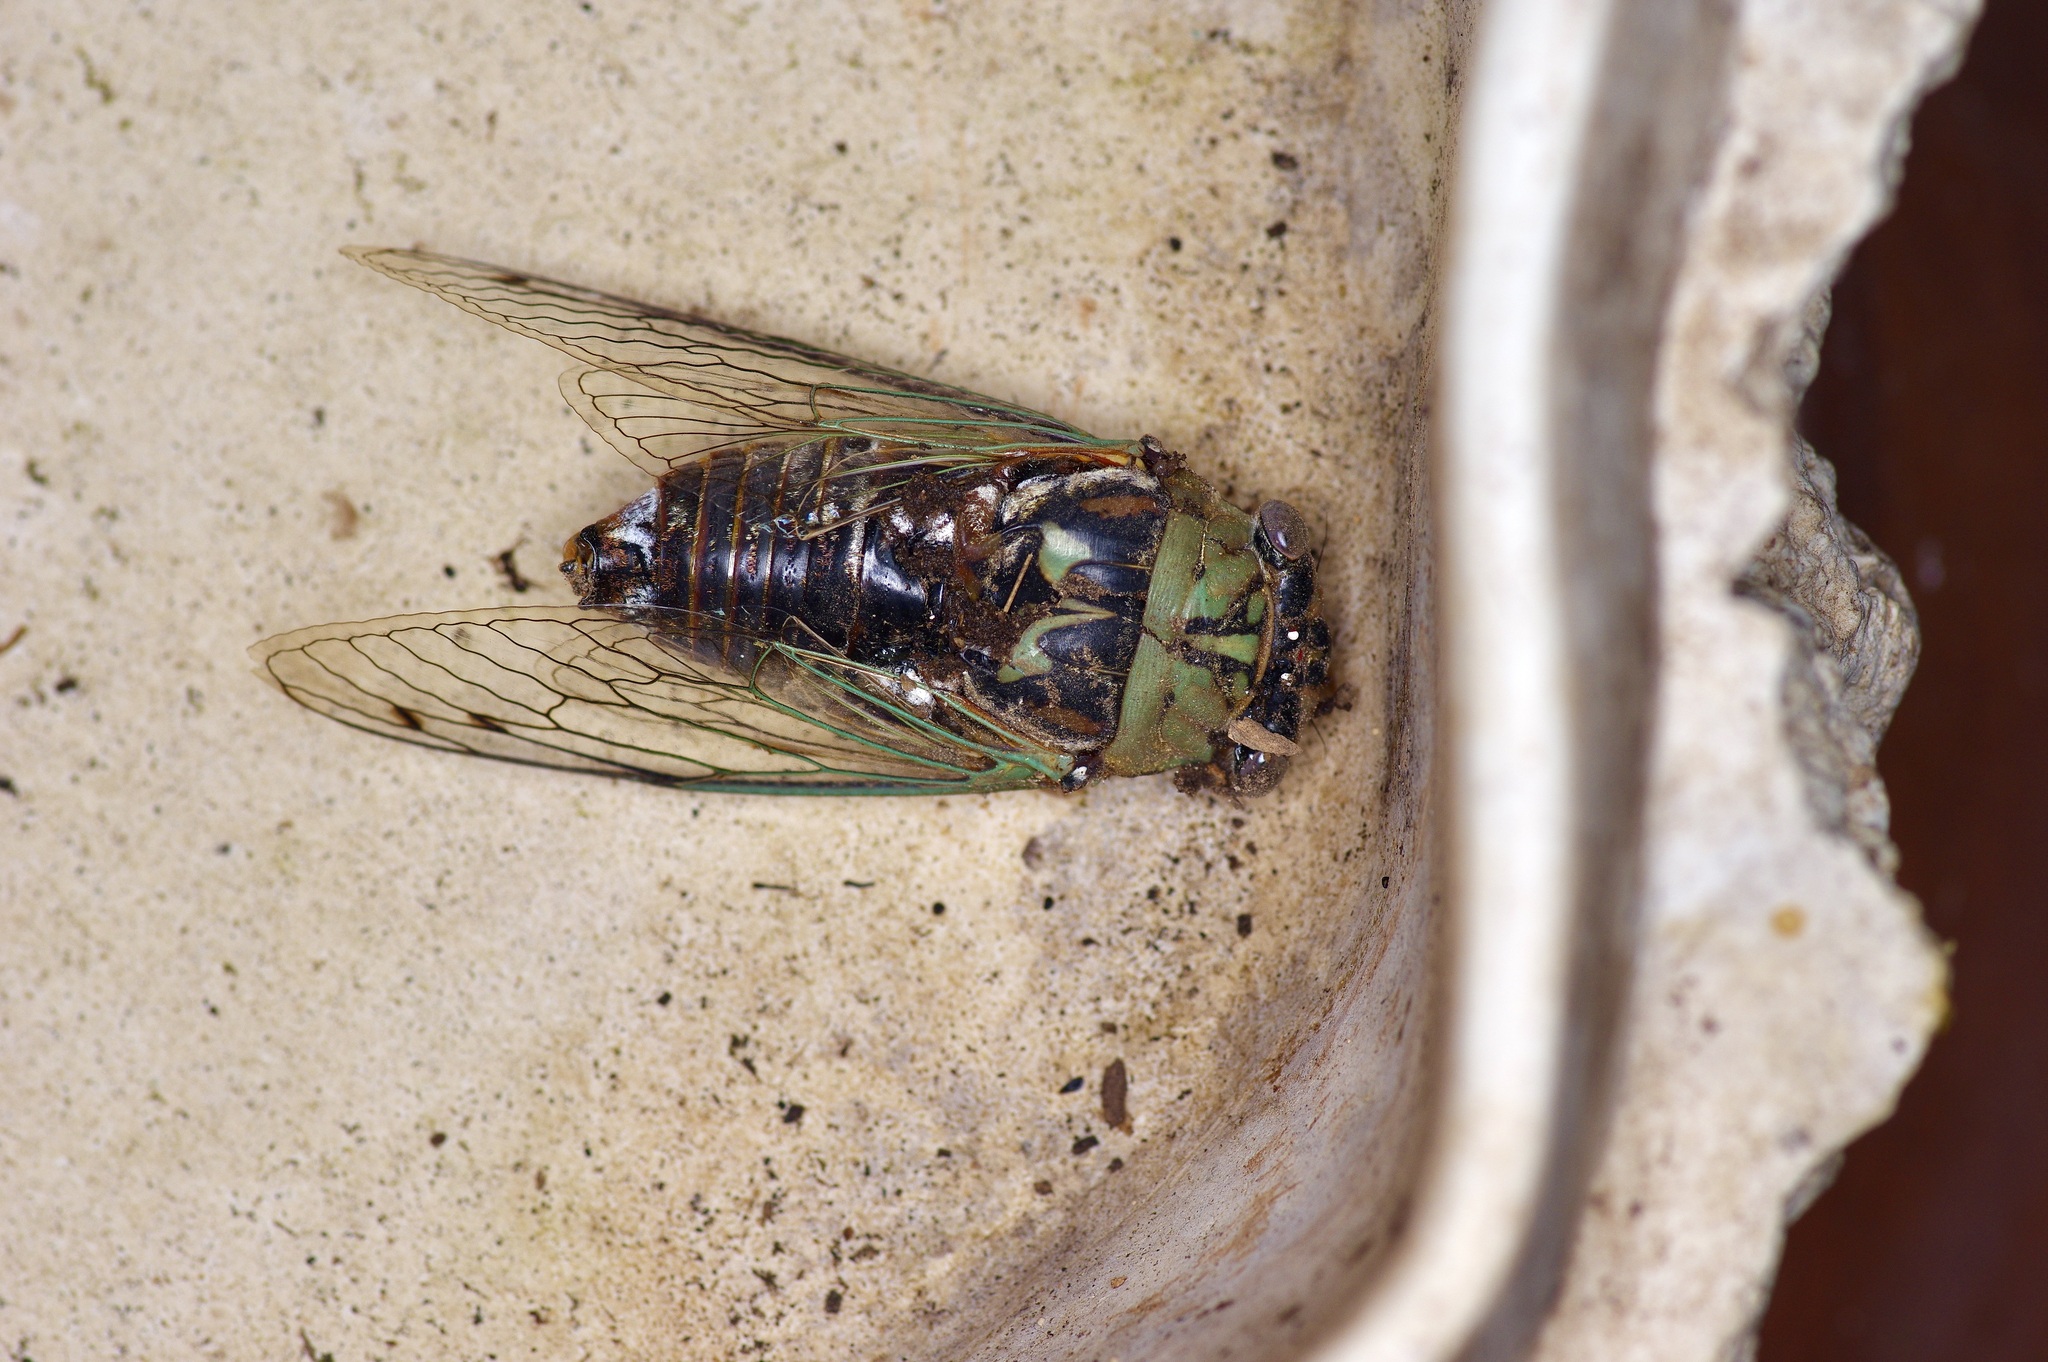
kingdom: Animalia
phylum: Arthropoda
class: Insecta
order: Hemiptera
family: Cicadidae
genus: Megatibicen
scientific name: Megatibicen resh
